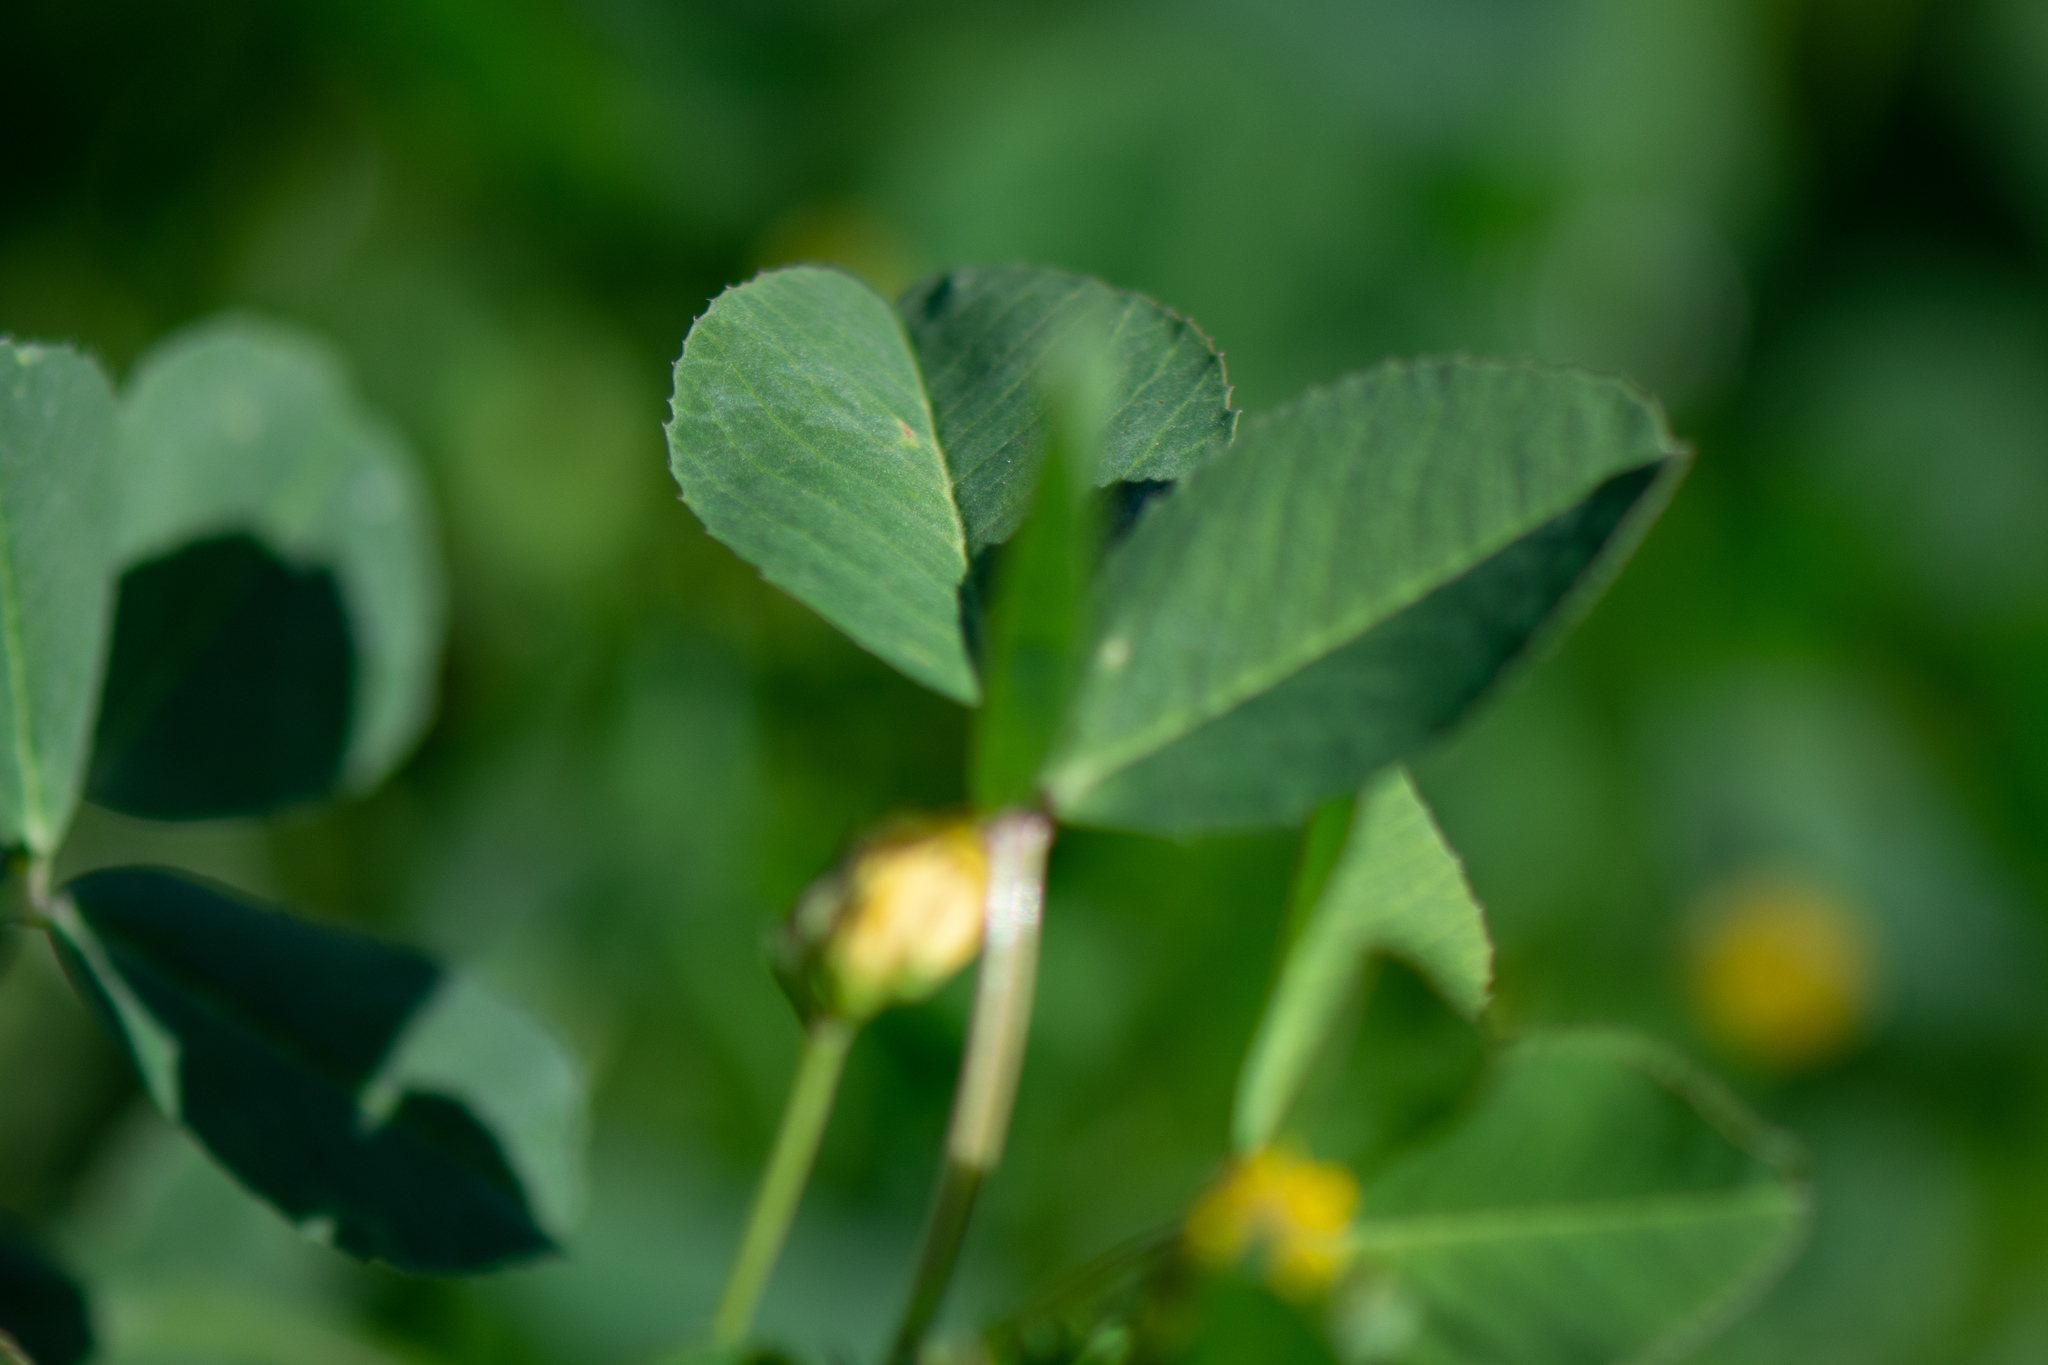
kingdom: Plantae
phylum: Tracheophyta
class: Magnoliopsida
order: Fabales
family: Fabaceae
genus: Medicago
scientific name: Medicago polymorpha
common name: Burclover
